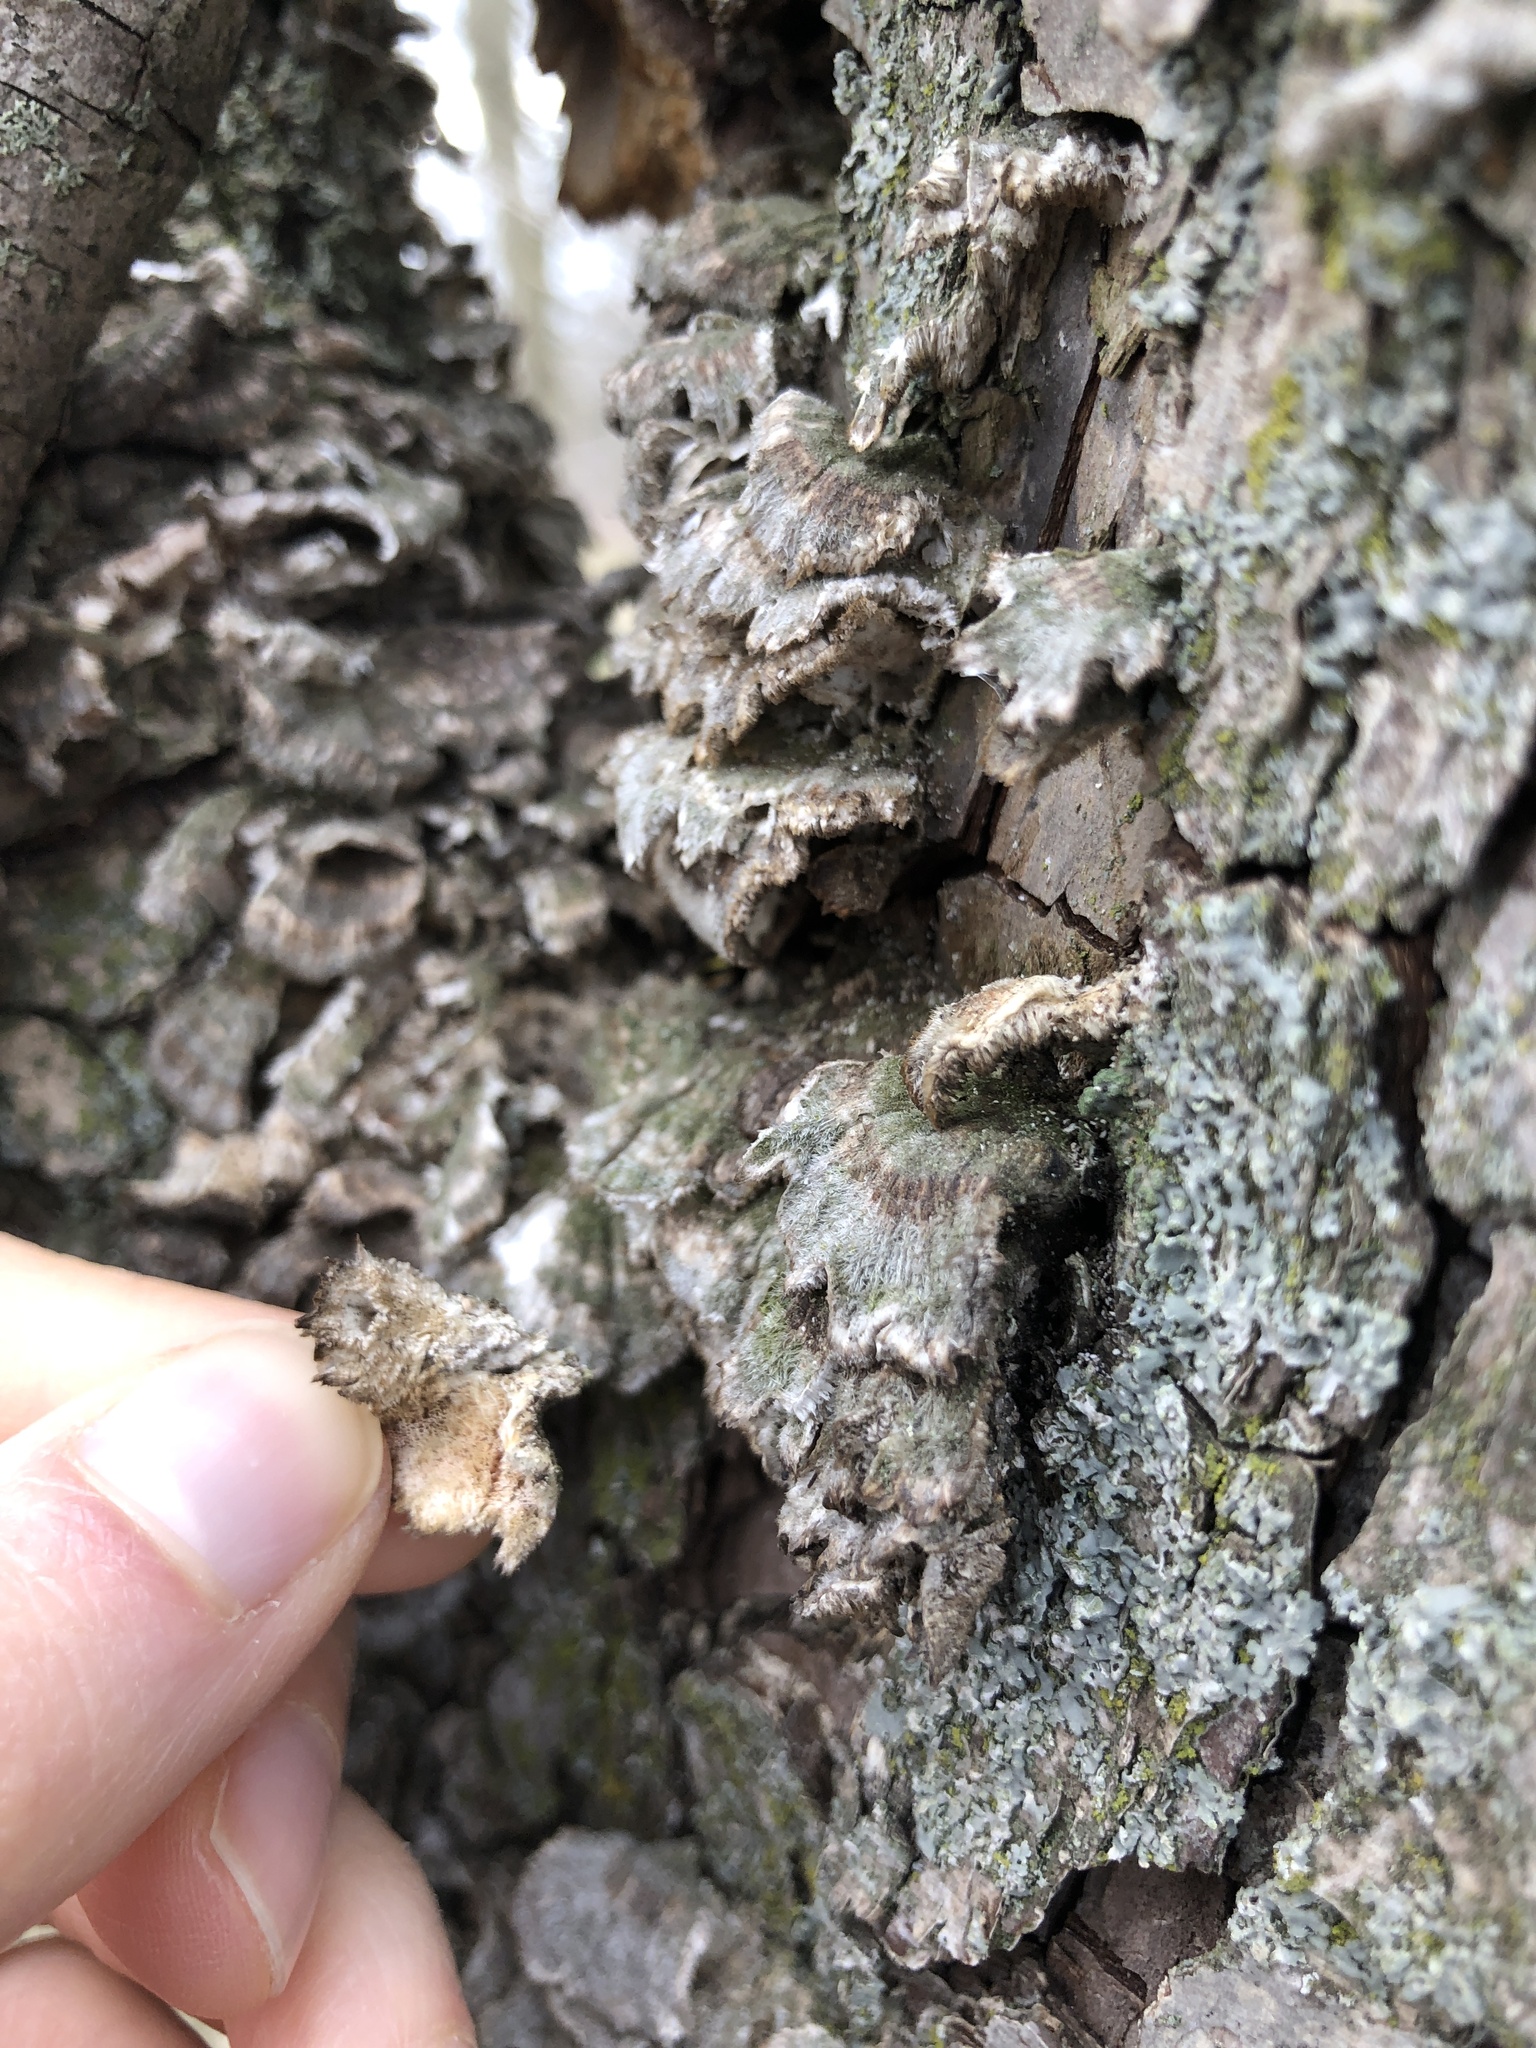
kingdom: Fungi
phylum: Basidiomycota
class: Agaricomycetes
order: Polyporales
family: Cerrenaceae
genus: Cerrena
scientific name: Cerrena unicolor
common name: Mossy maze polypore
